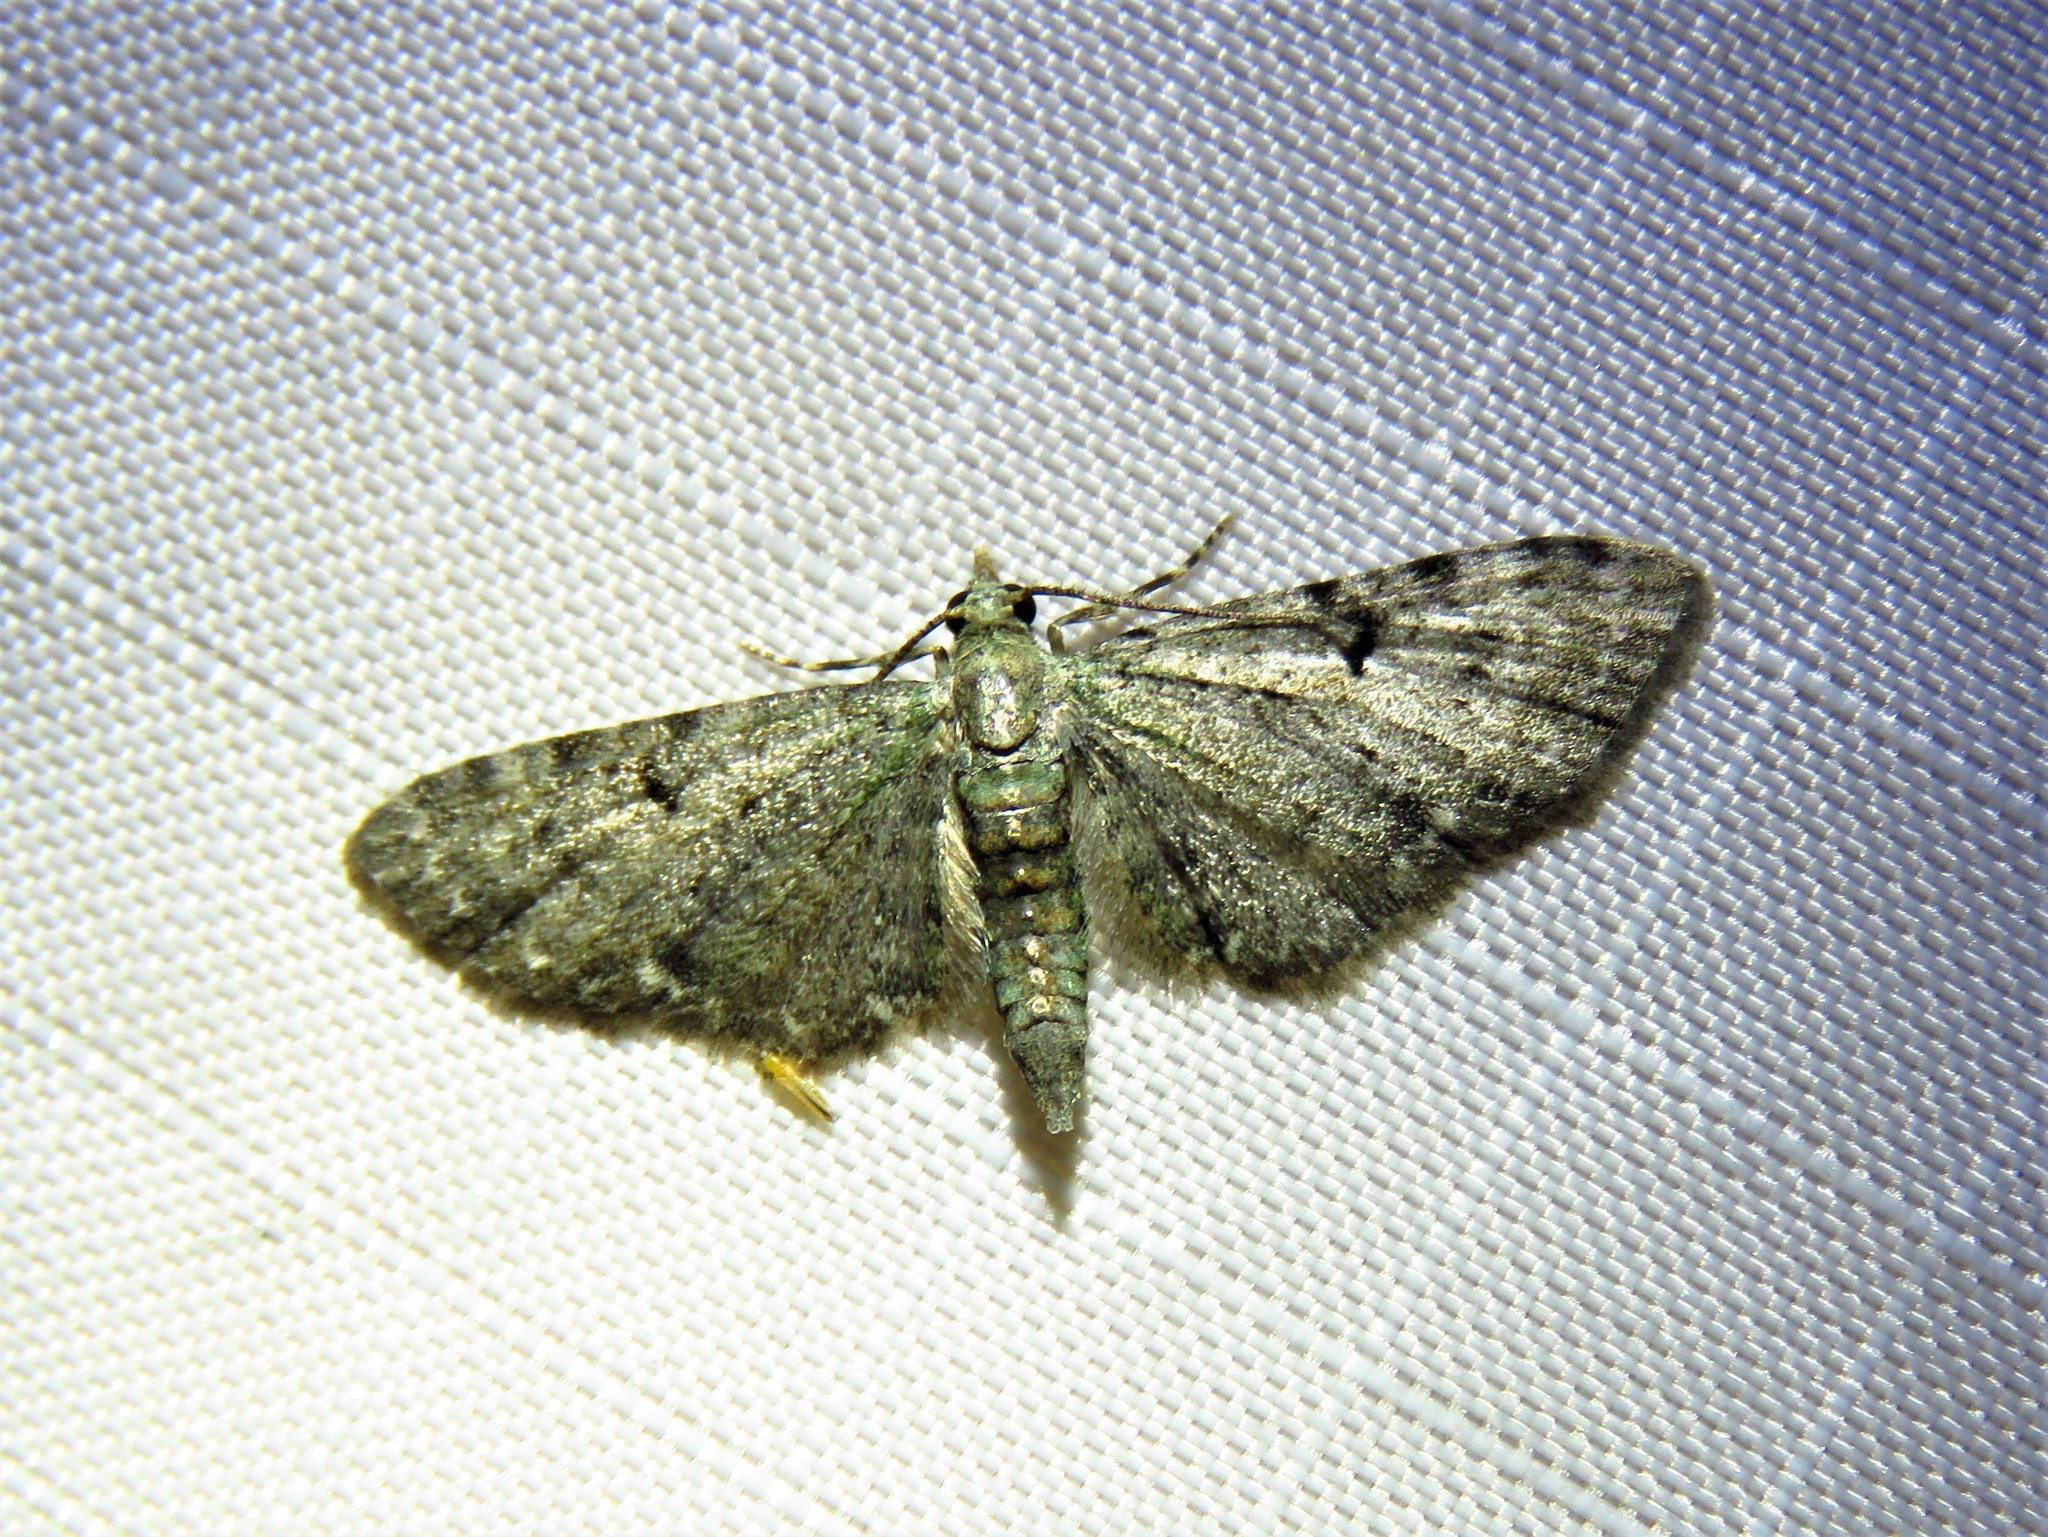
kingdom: Animalia
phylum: Arthropoda
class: Insecta
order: Lepidoptera
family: Geometridae
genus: Eupithecia
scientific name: Eupithecia miserulata
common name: Common eupithecia
